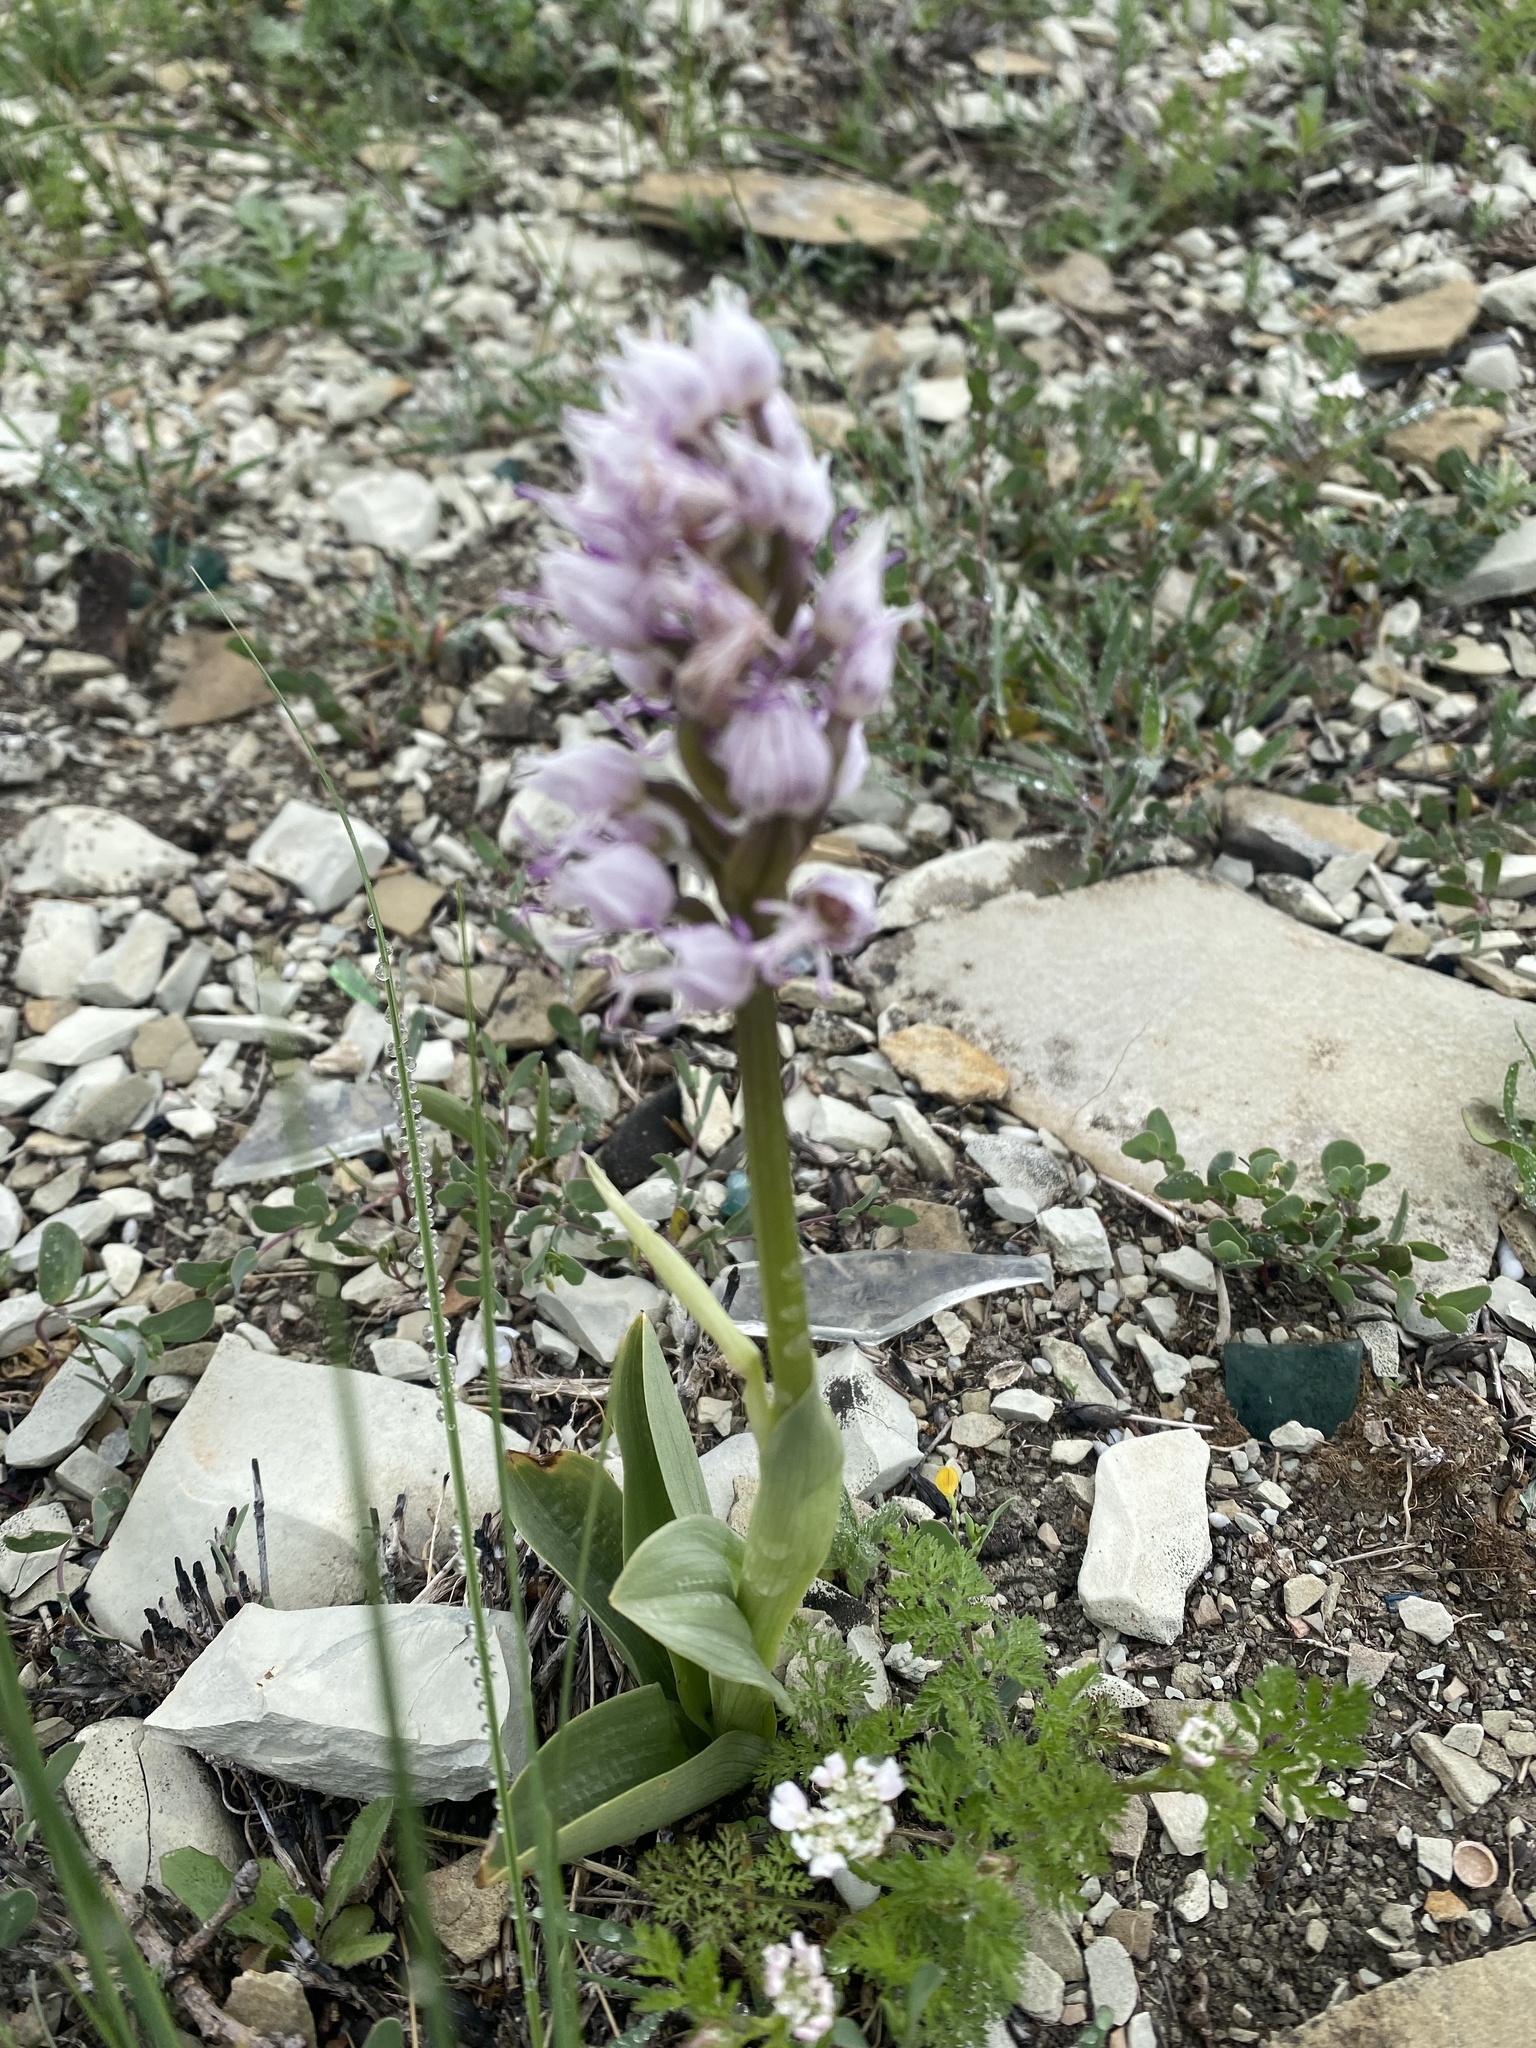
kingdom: Plantae
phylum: Tracheophyta
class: Liliopsida
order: Asparagales
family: Orchidaceae
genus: Orchis
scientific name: Orchis simia
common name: Monkey orchid
